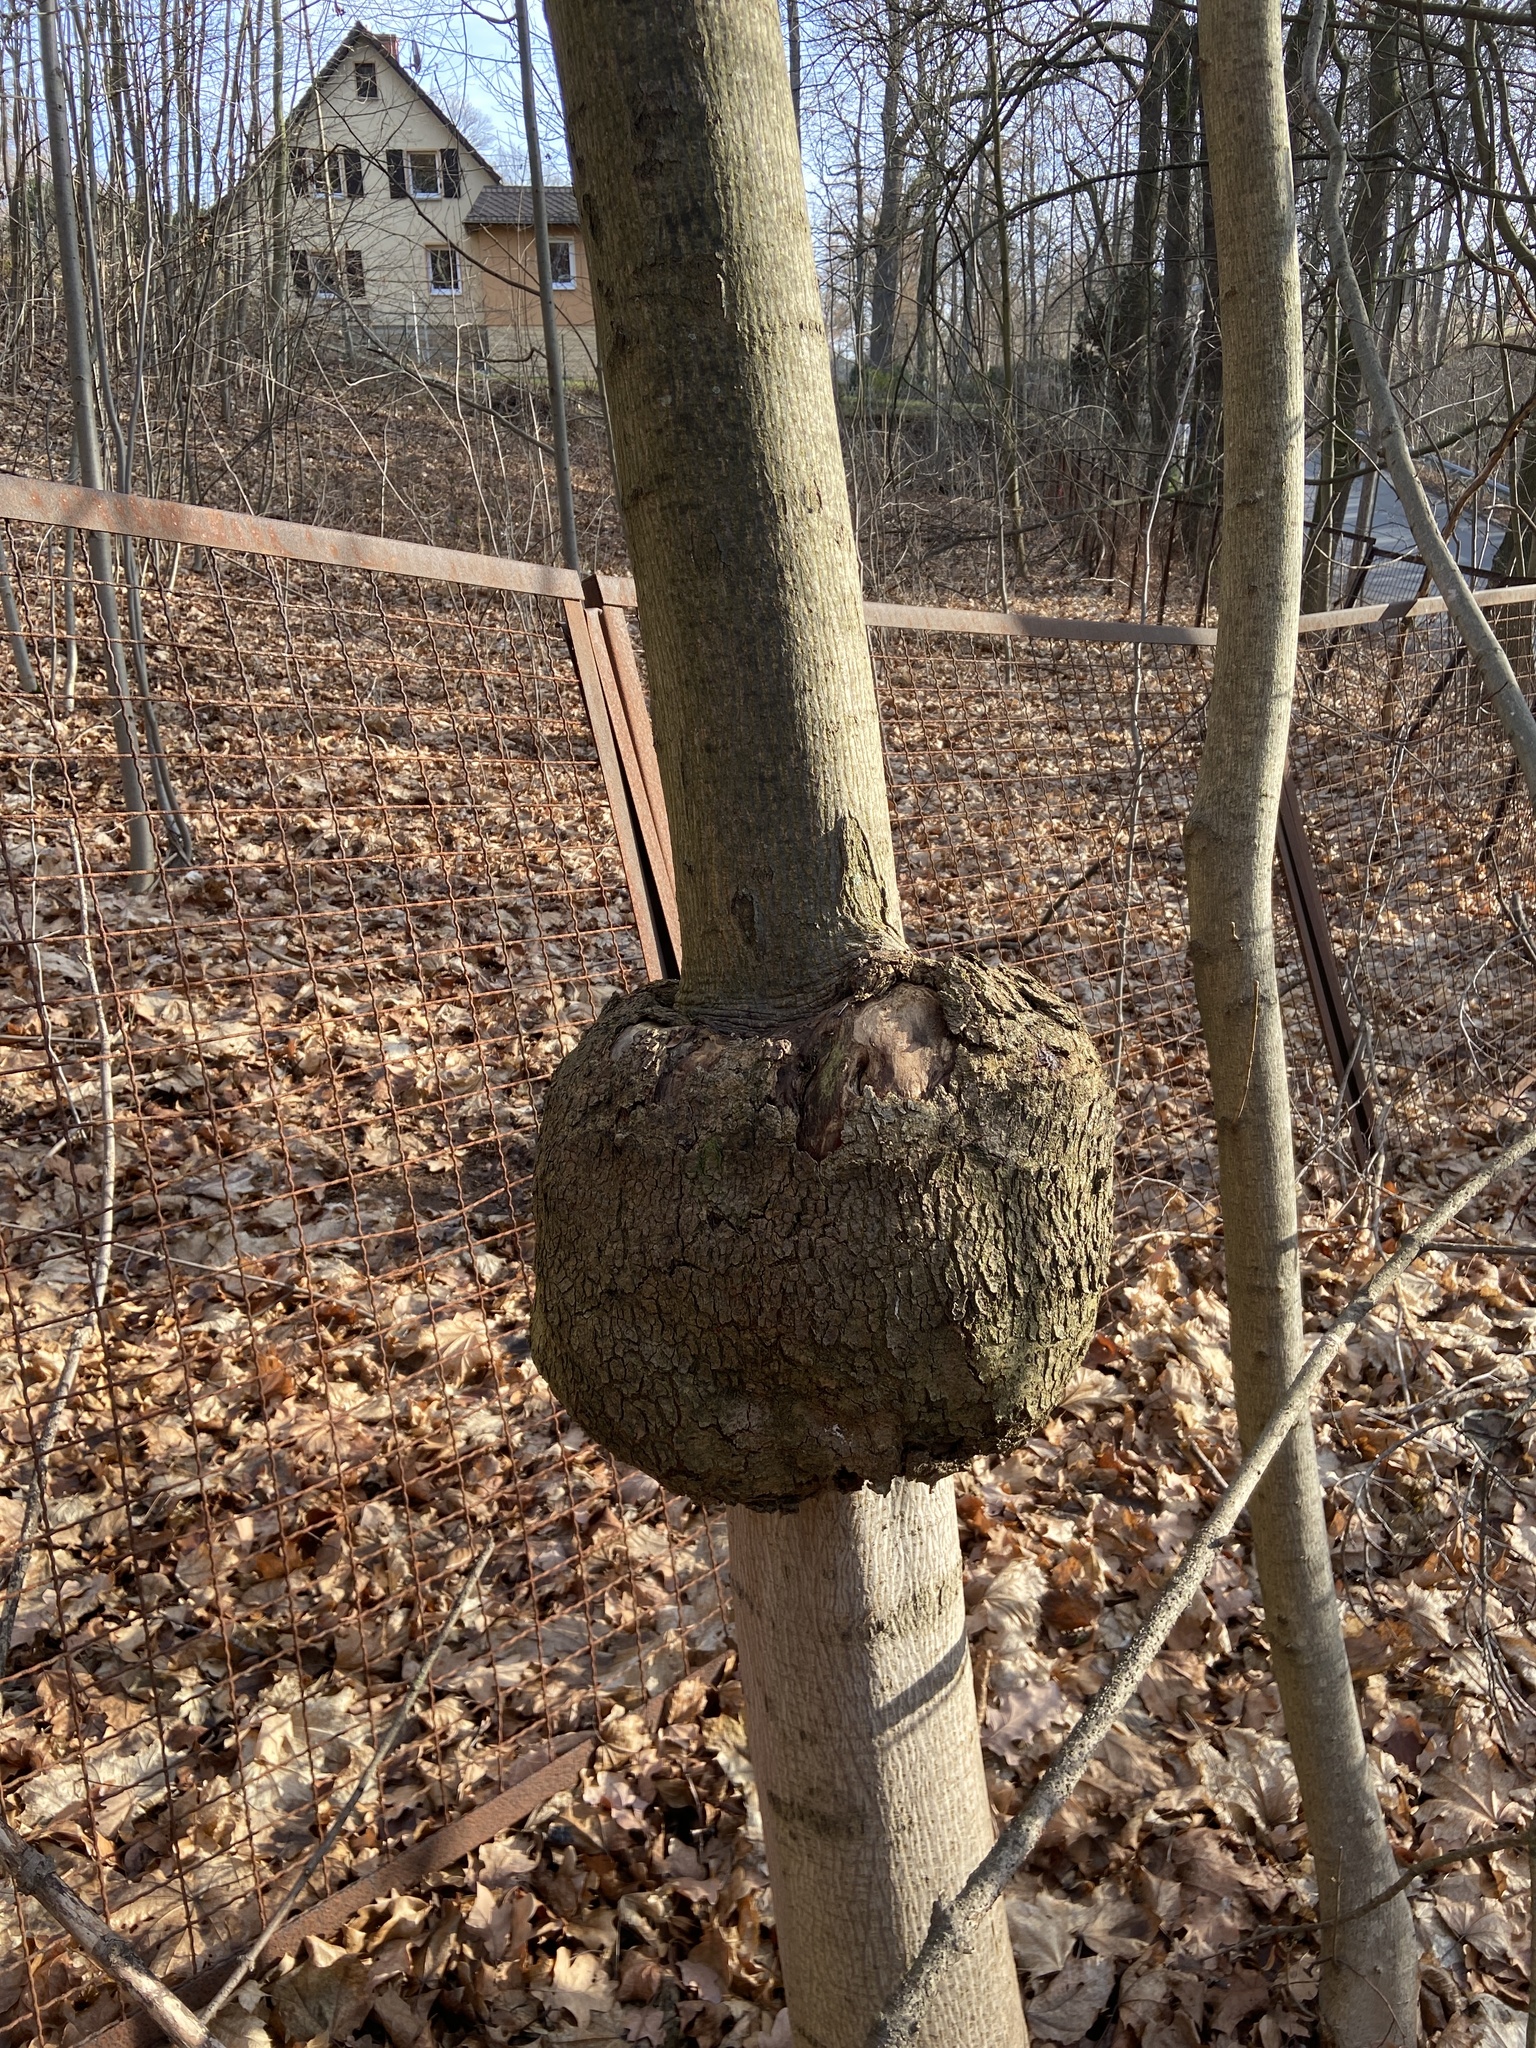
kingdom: Bacteria
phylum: Proteobacteria
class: Alphaproteobacteria
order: Rhizobiales
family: Rhizobiaceae
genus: Rhizobium
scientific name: Rhizobium Agrobacterium radiobacter
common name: Bacterial crown gall
